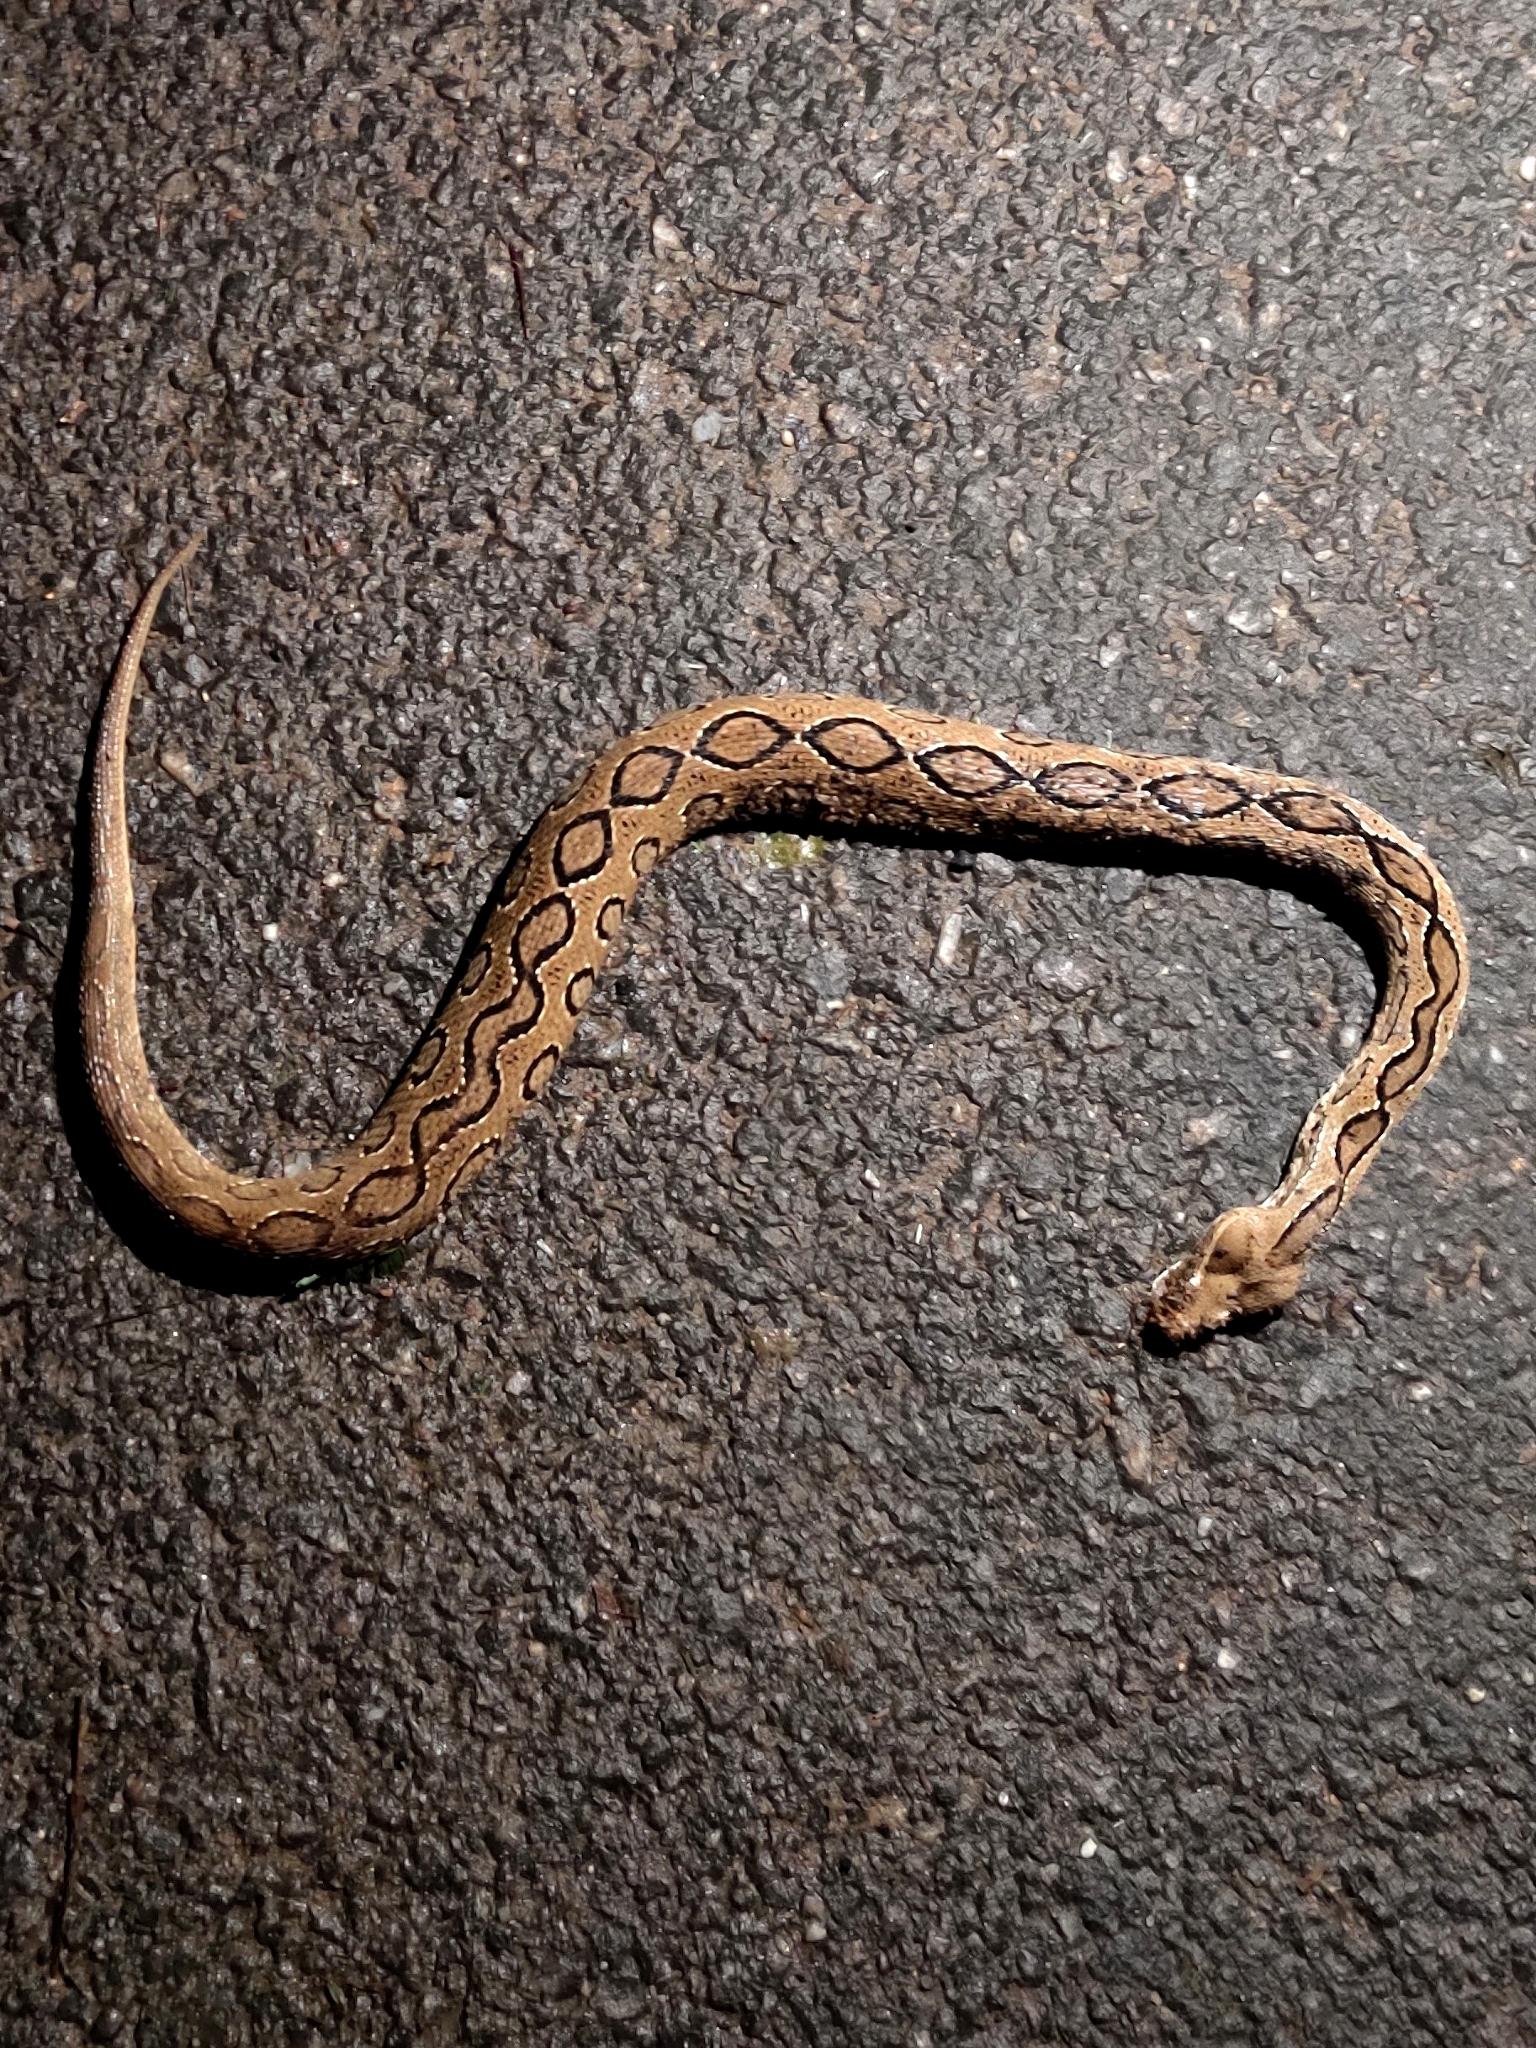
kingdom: Animalia
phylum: Chordata
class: Squamata
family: Viperidae
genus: Daboia
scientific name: Daboia russelii
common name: Western russel’s viper
